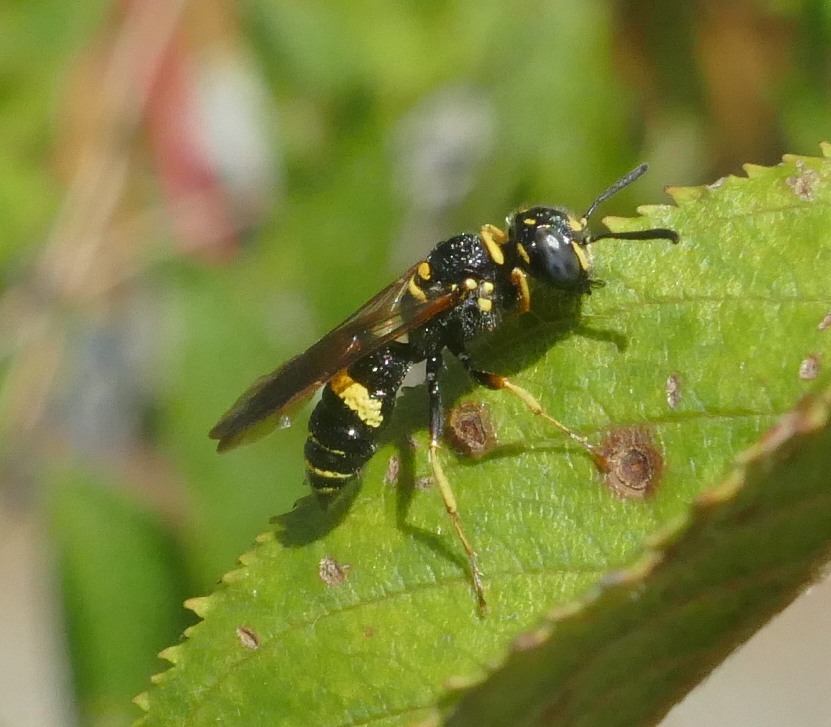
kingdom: Animalia
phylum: Arthropoda
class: Insecta
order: Hymenoptera
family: Crabronidae
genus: Philanthus
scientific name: Philanthus gibbosus
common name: Humped beewolf
